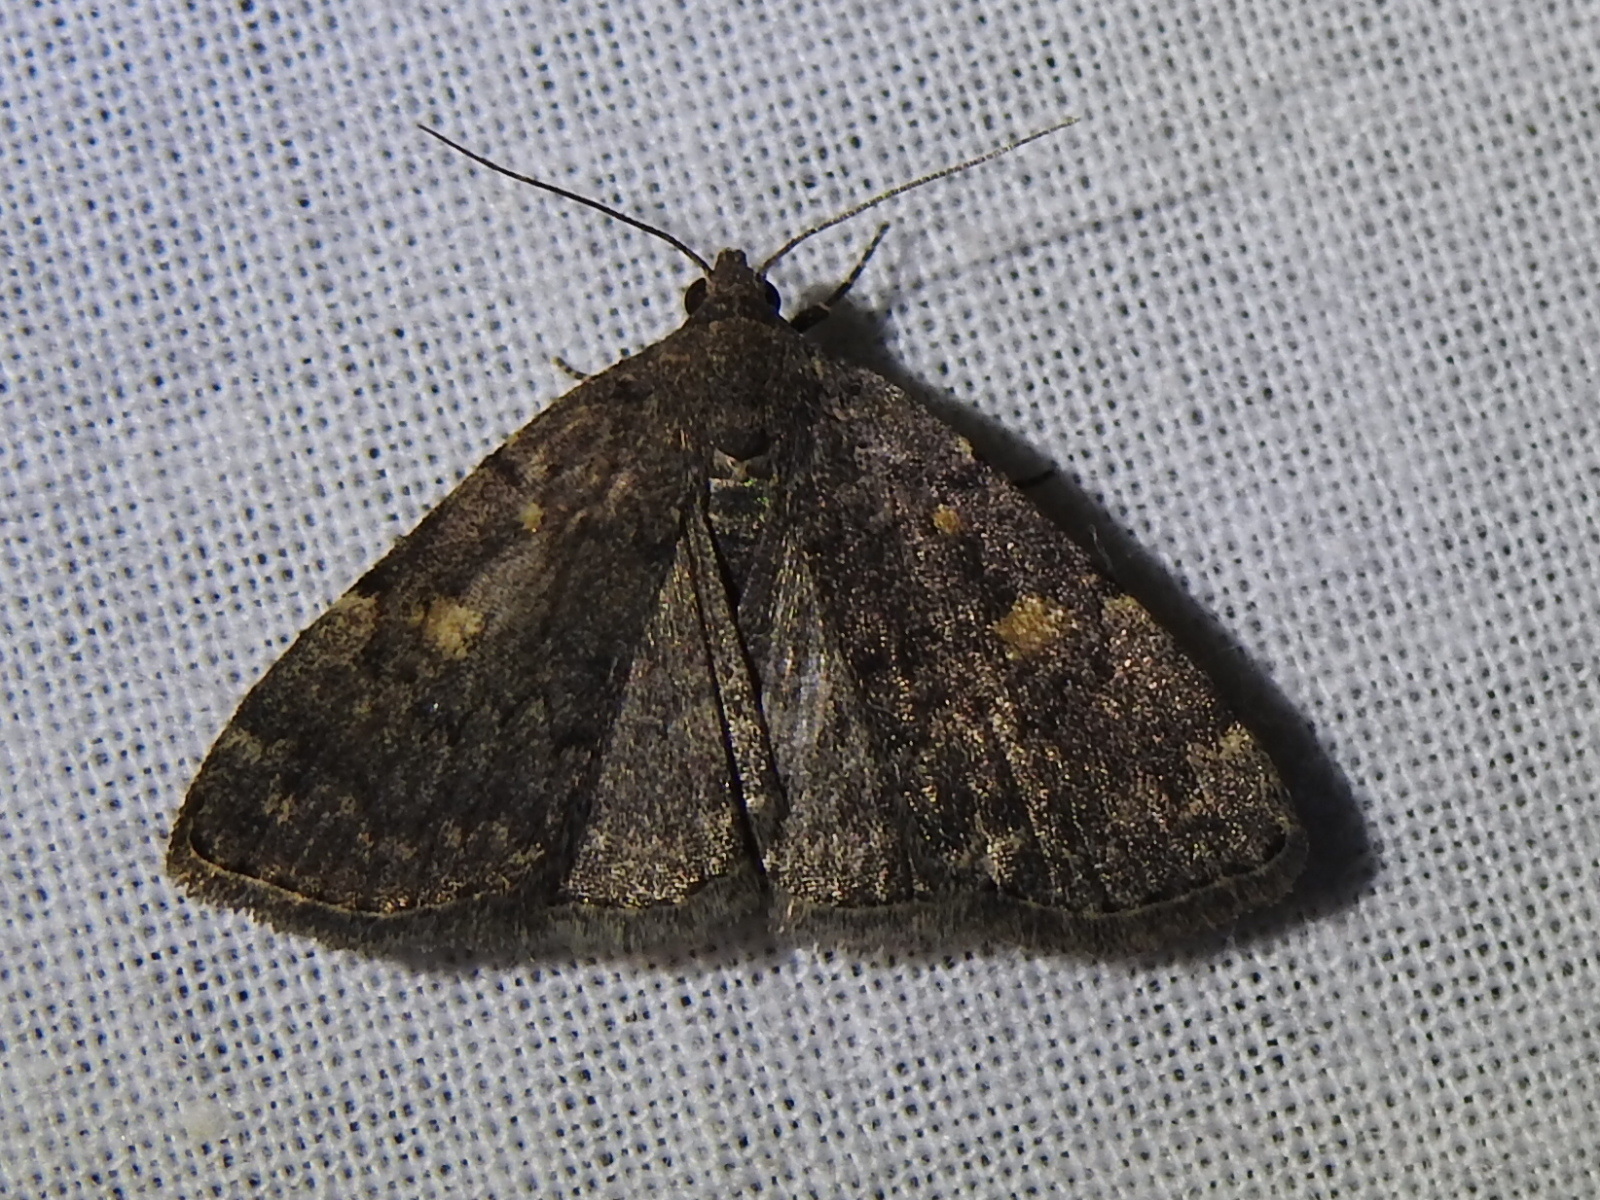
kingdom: Animalia
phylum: Arthropoda
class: Insecta
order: Lepidoptera
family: Erebidae
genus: Idia
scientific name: Idia aemula
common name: Common idia moth
